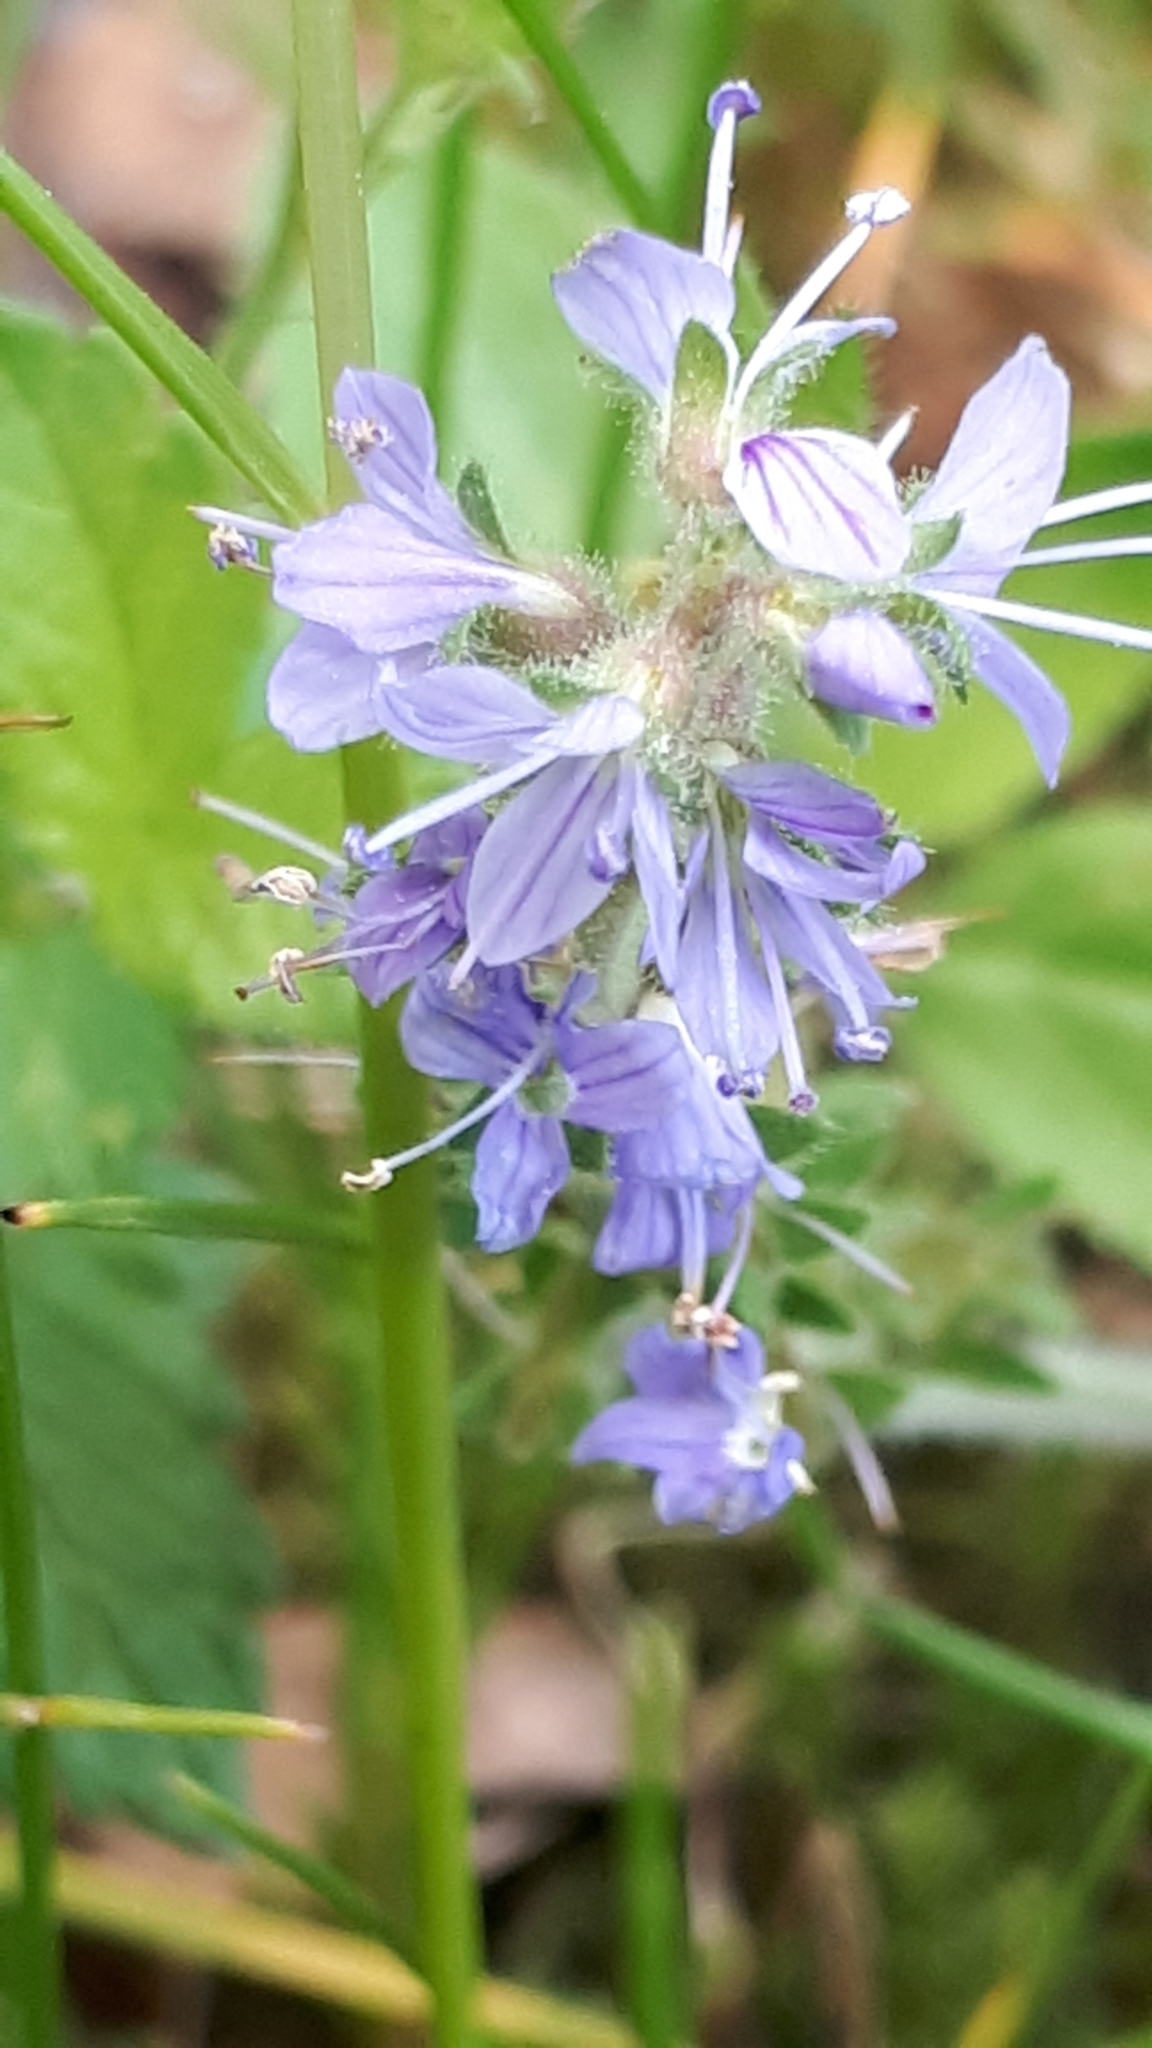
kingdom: Plantae
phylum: Tracheophyta
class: Magnoliopsida
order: Lamiales
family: Plantaginaceae
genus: Veronica
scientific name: Veronica officinalis
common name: Common speedwell
